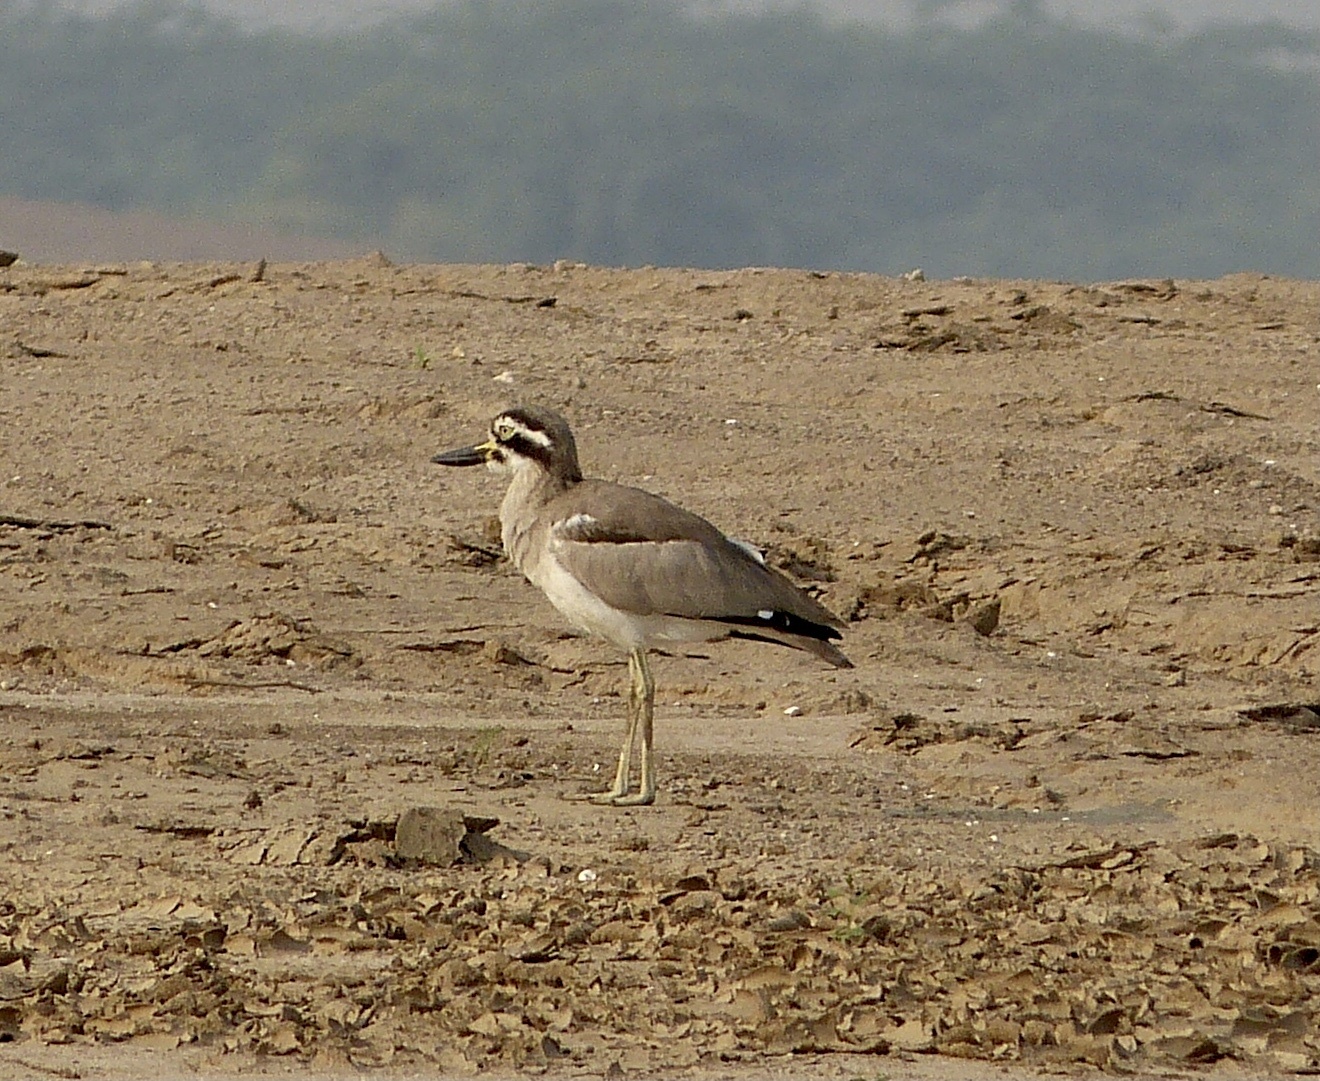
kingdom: Animalia
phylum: Chordata
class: Aves
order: Charadriiformes
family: Burhinidae
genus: Esacus
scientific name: Esacus recurvirostris
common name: Great stone-curlew
